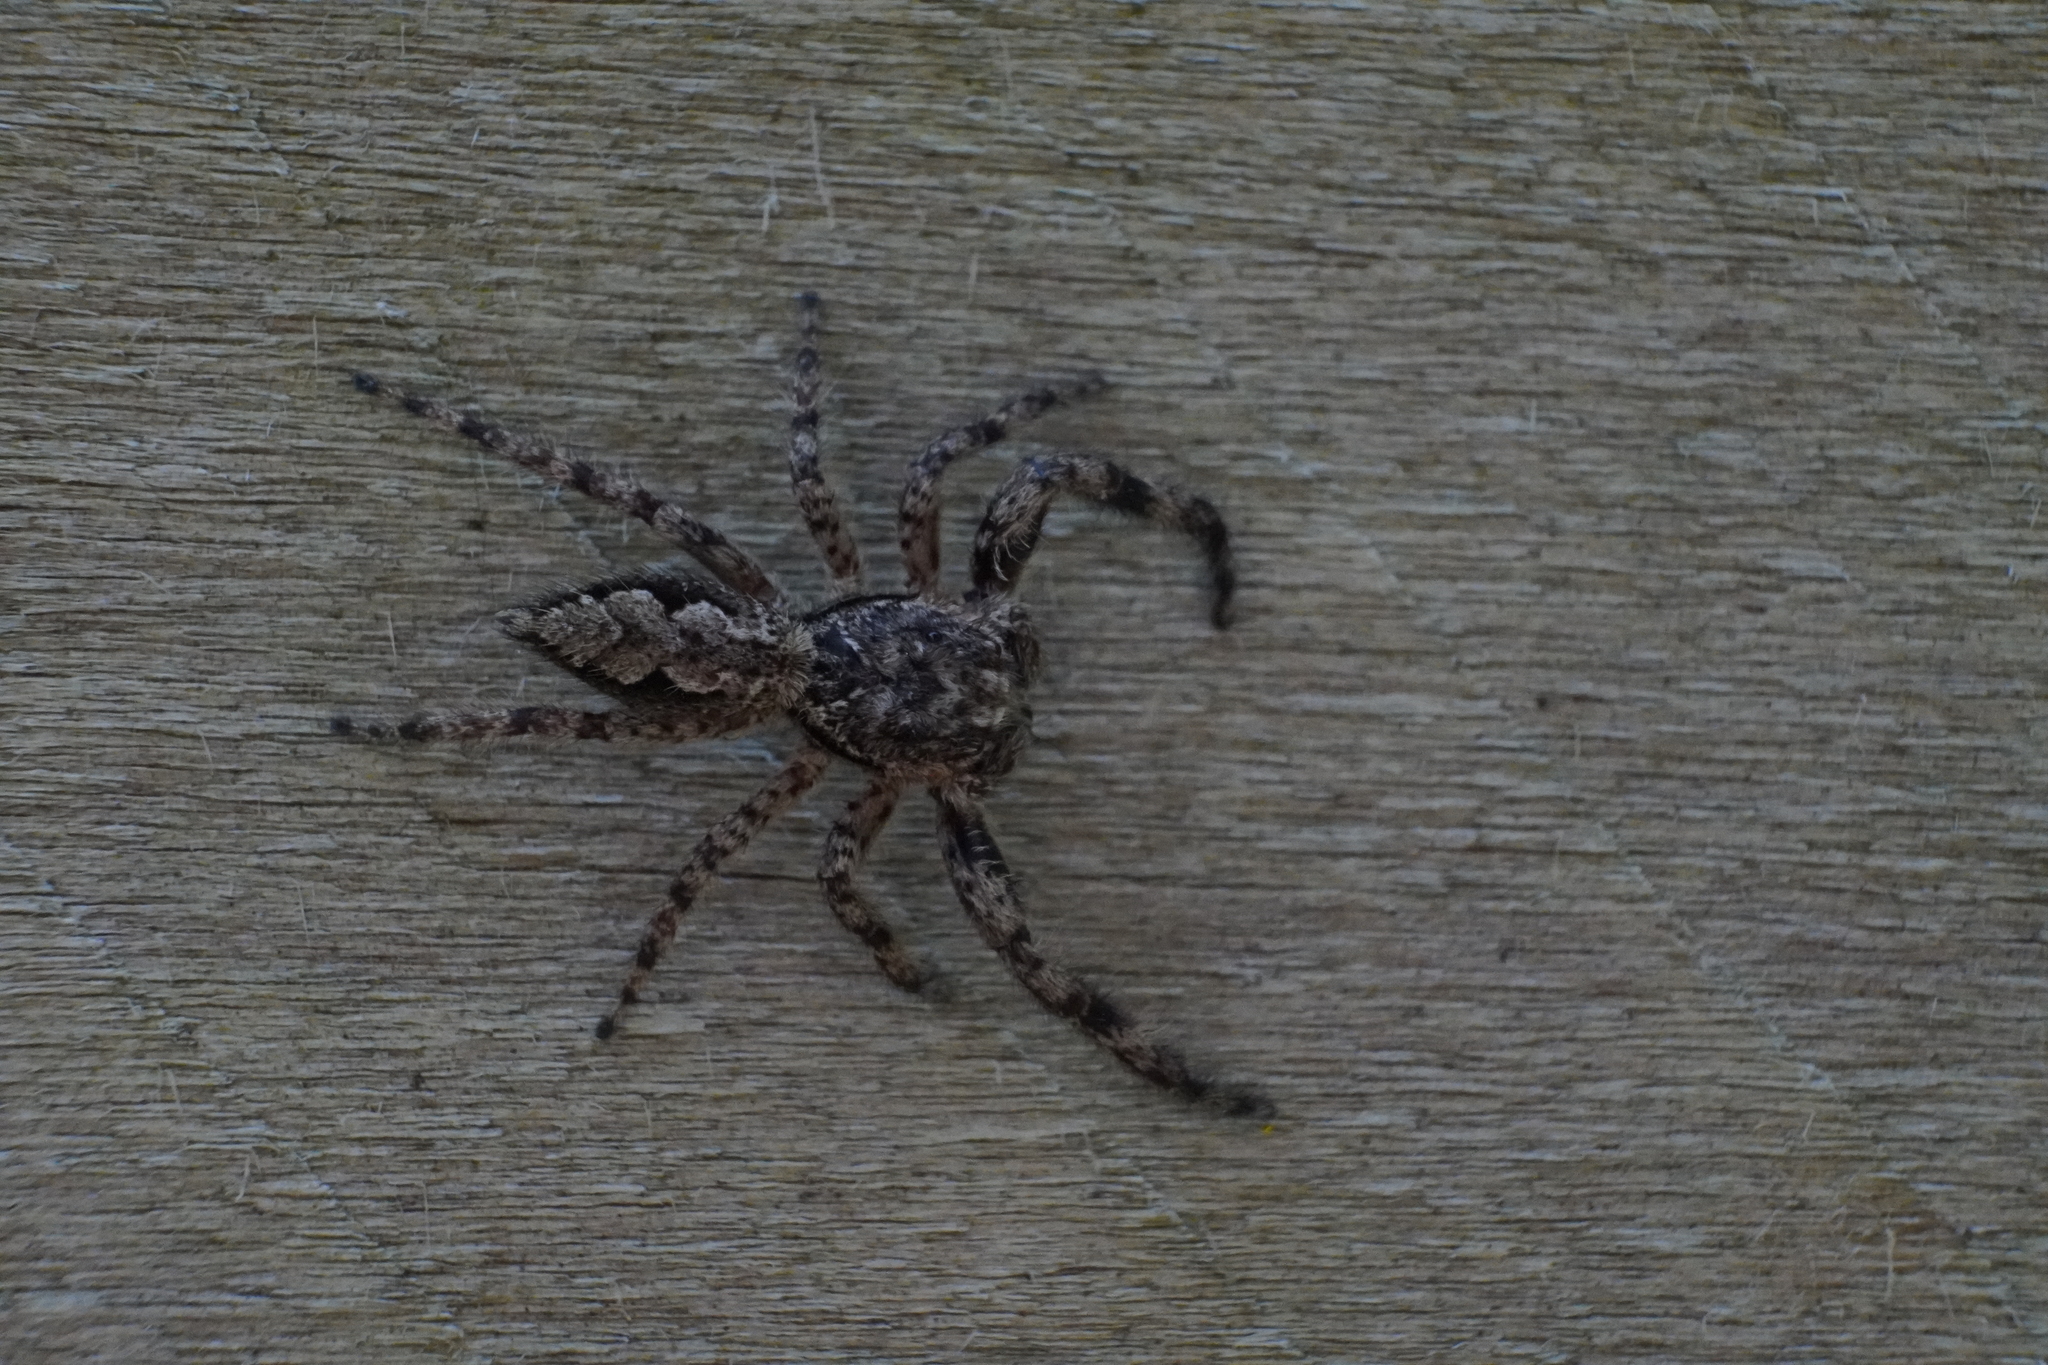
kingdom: Animalia
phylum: Arthropoda
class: Arachnida
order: Araneae
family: Salticidae
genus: Platycryptus
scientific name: Platycryptus undatus
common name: Tan jumping spider
